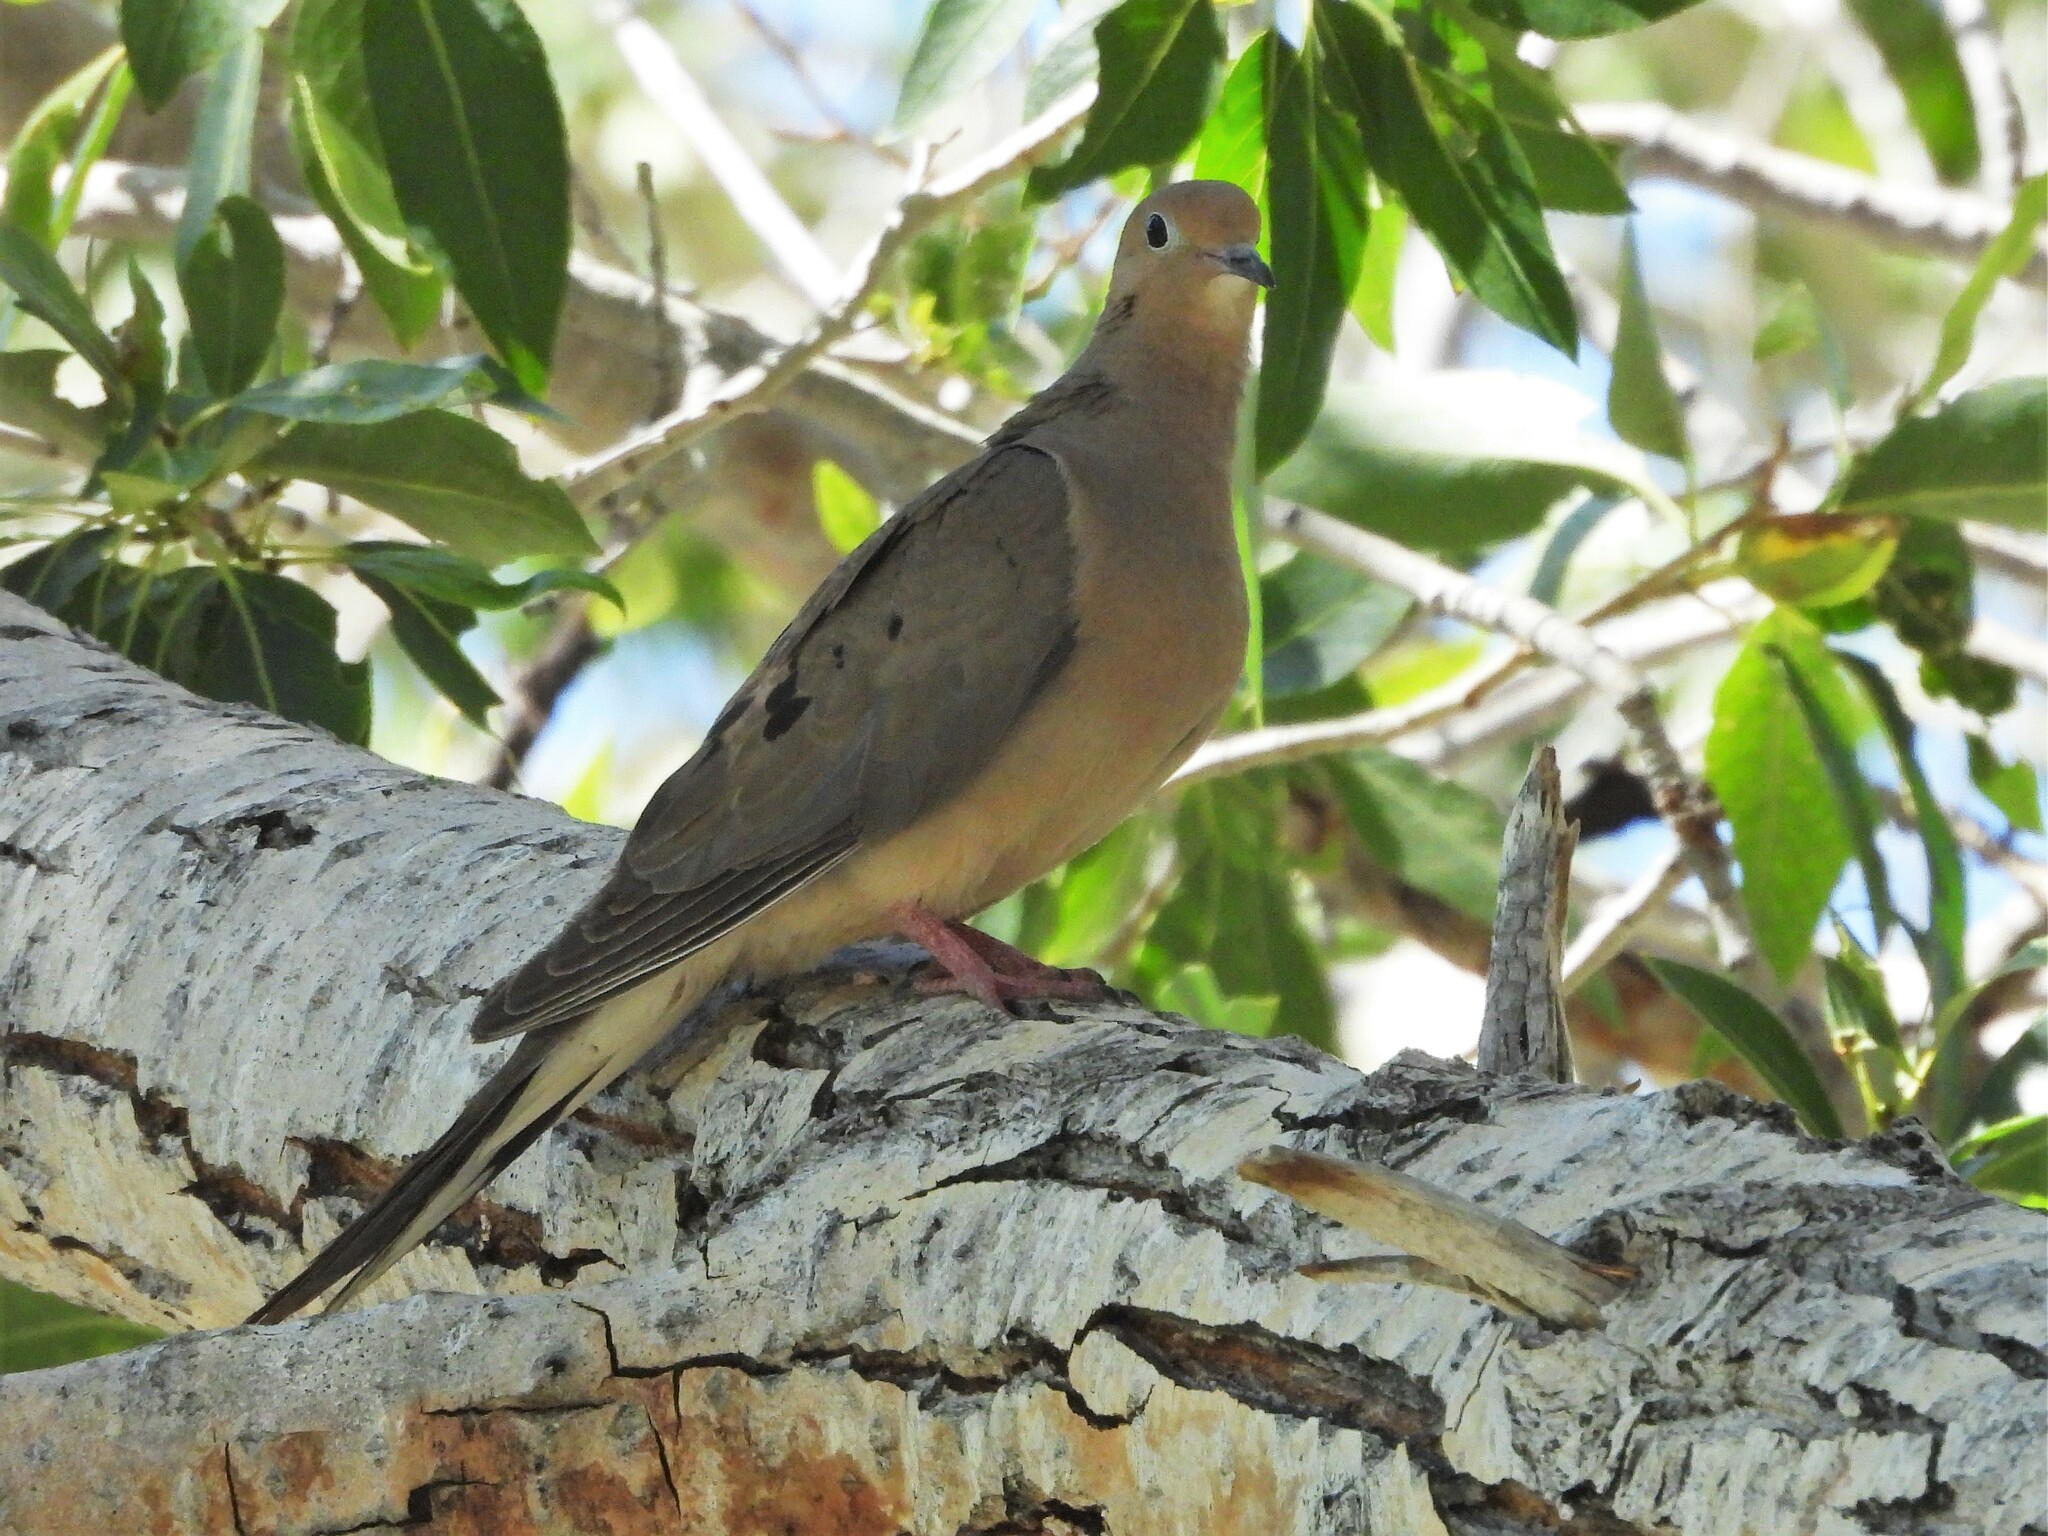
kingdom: Animalia
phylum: Chordata
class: Aves
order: Columbiformes
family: Columbidae
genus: Zenaida
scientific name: Zenaida macroura
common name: Mourning dove
